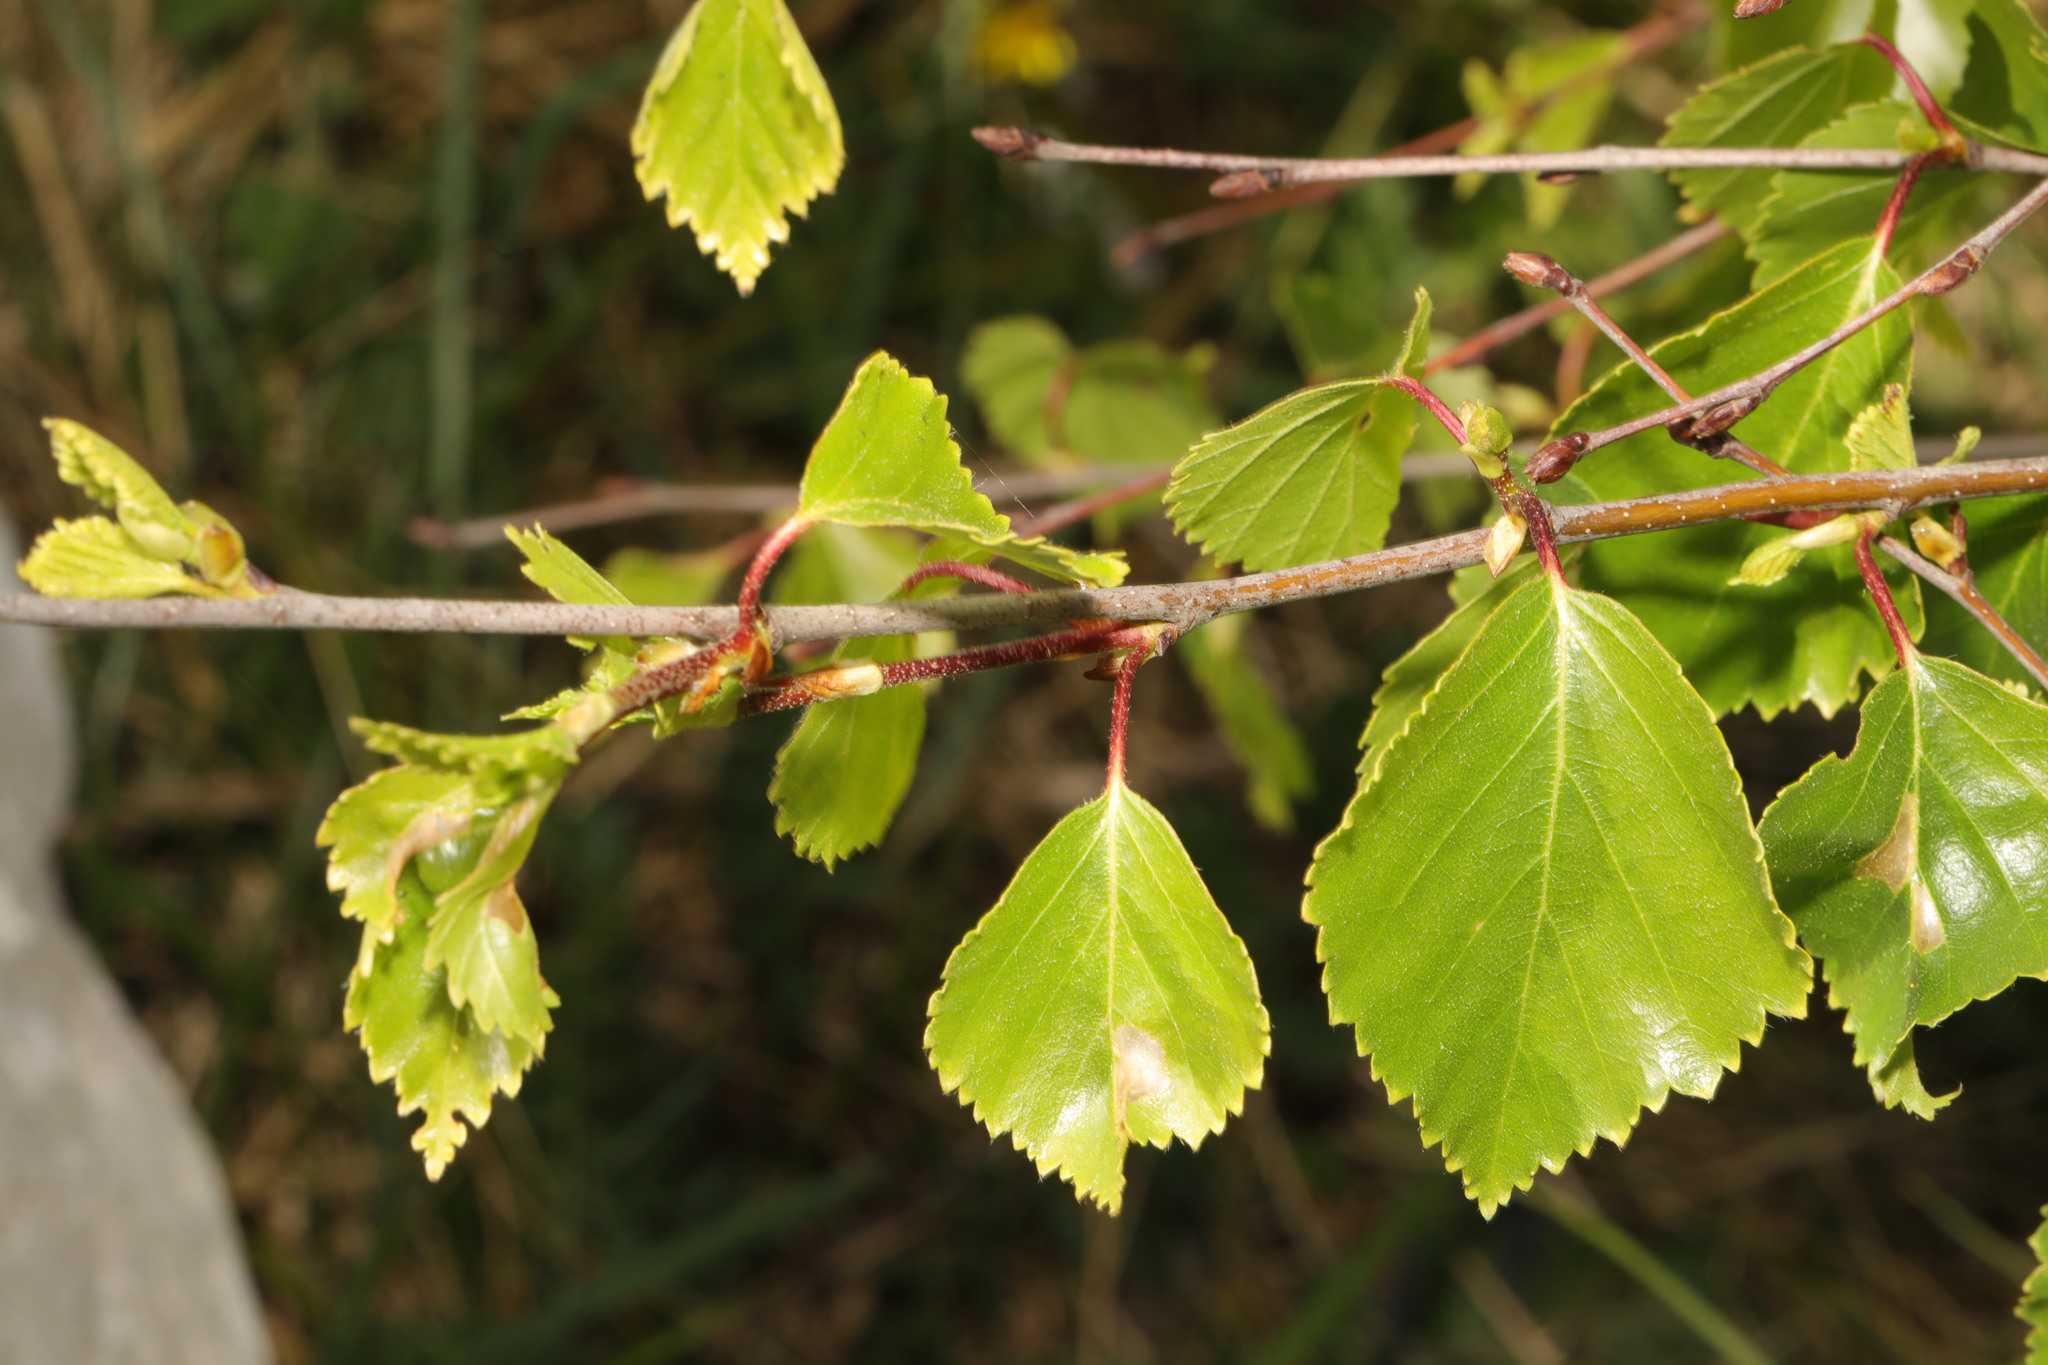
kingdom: Plantae
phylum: Tracheophyta
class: Magnoliopsida
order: Fagales
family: Betulaceae
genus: Betula
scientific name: Betula pendula
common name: Silver birch
